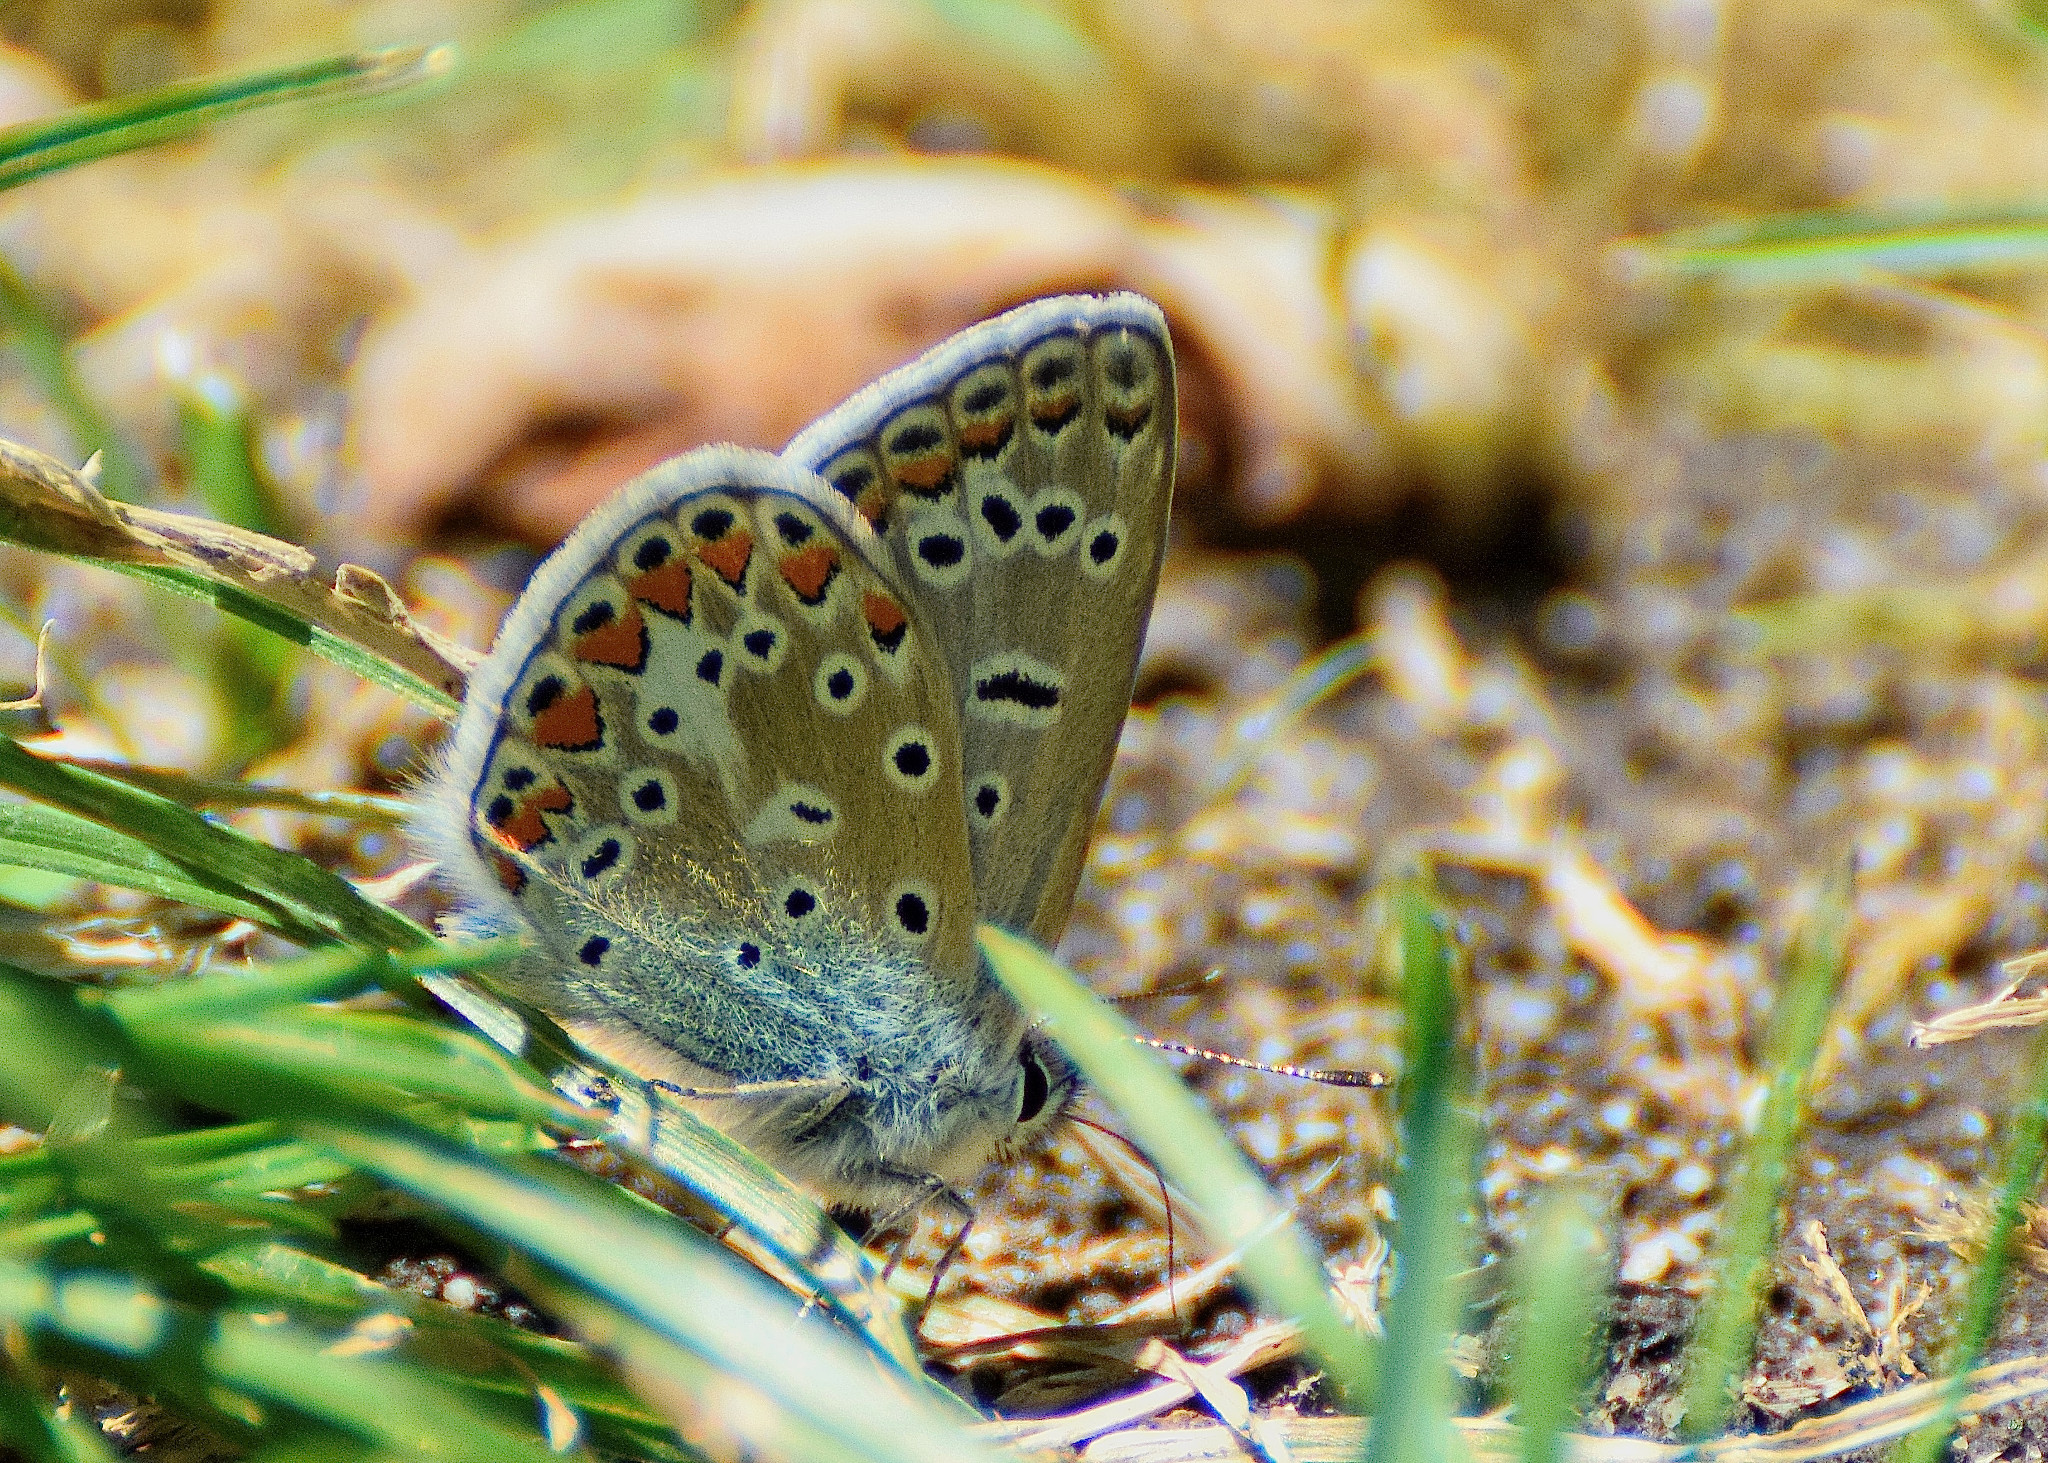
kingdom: Animalia
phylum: Arthropoda
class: Insecta
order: Lepidoptera
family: Lycaenidae
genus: Polyommatus
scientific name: Polyommatus icarus
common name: Common blue
